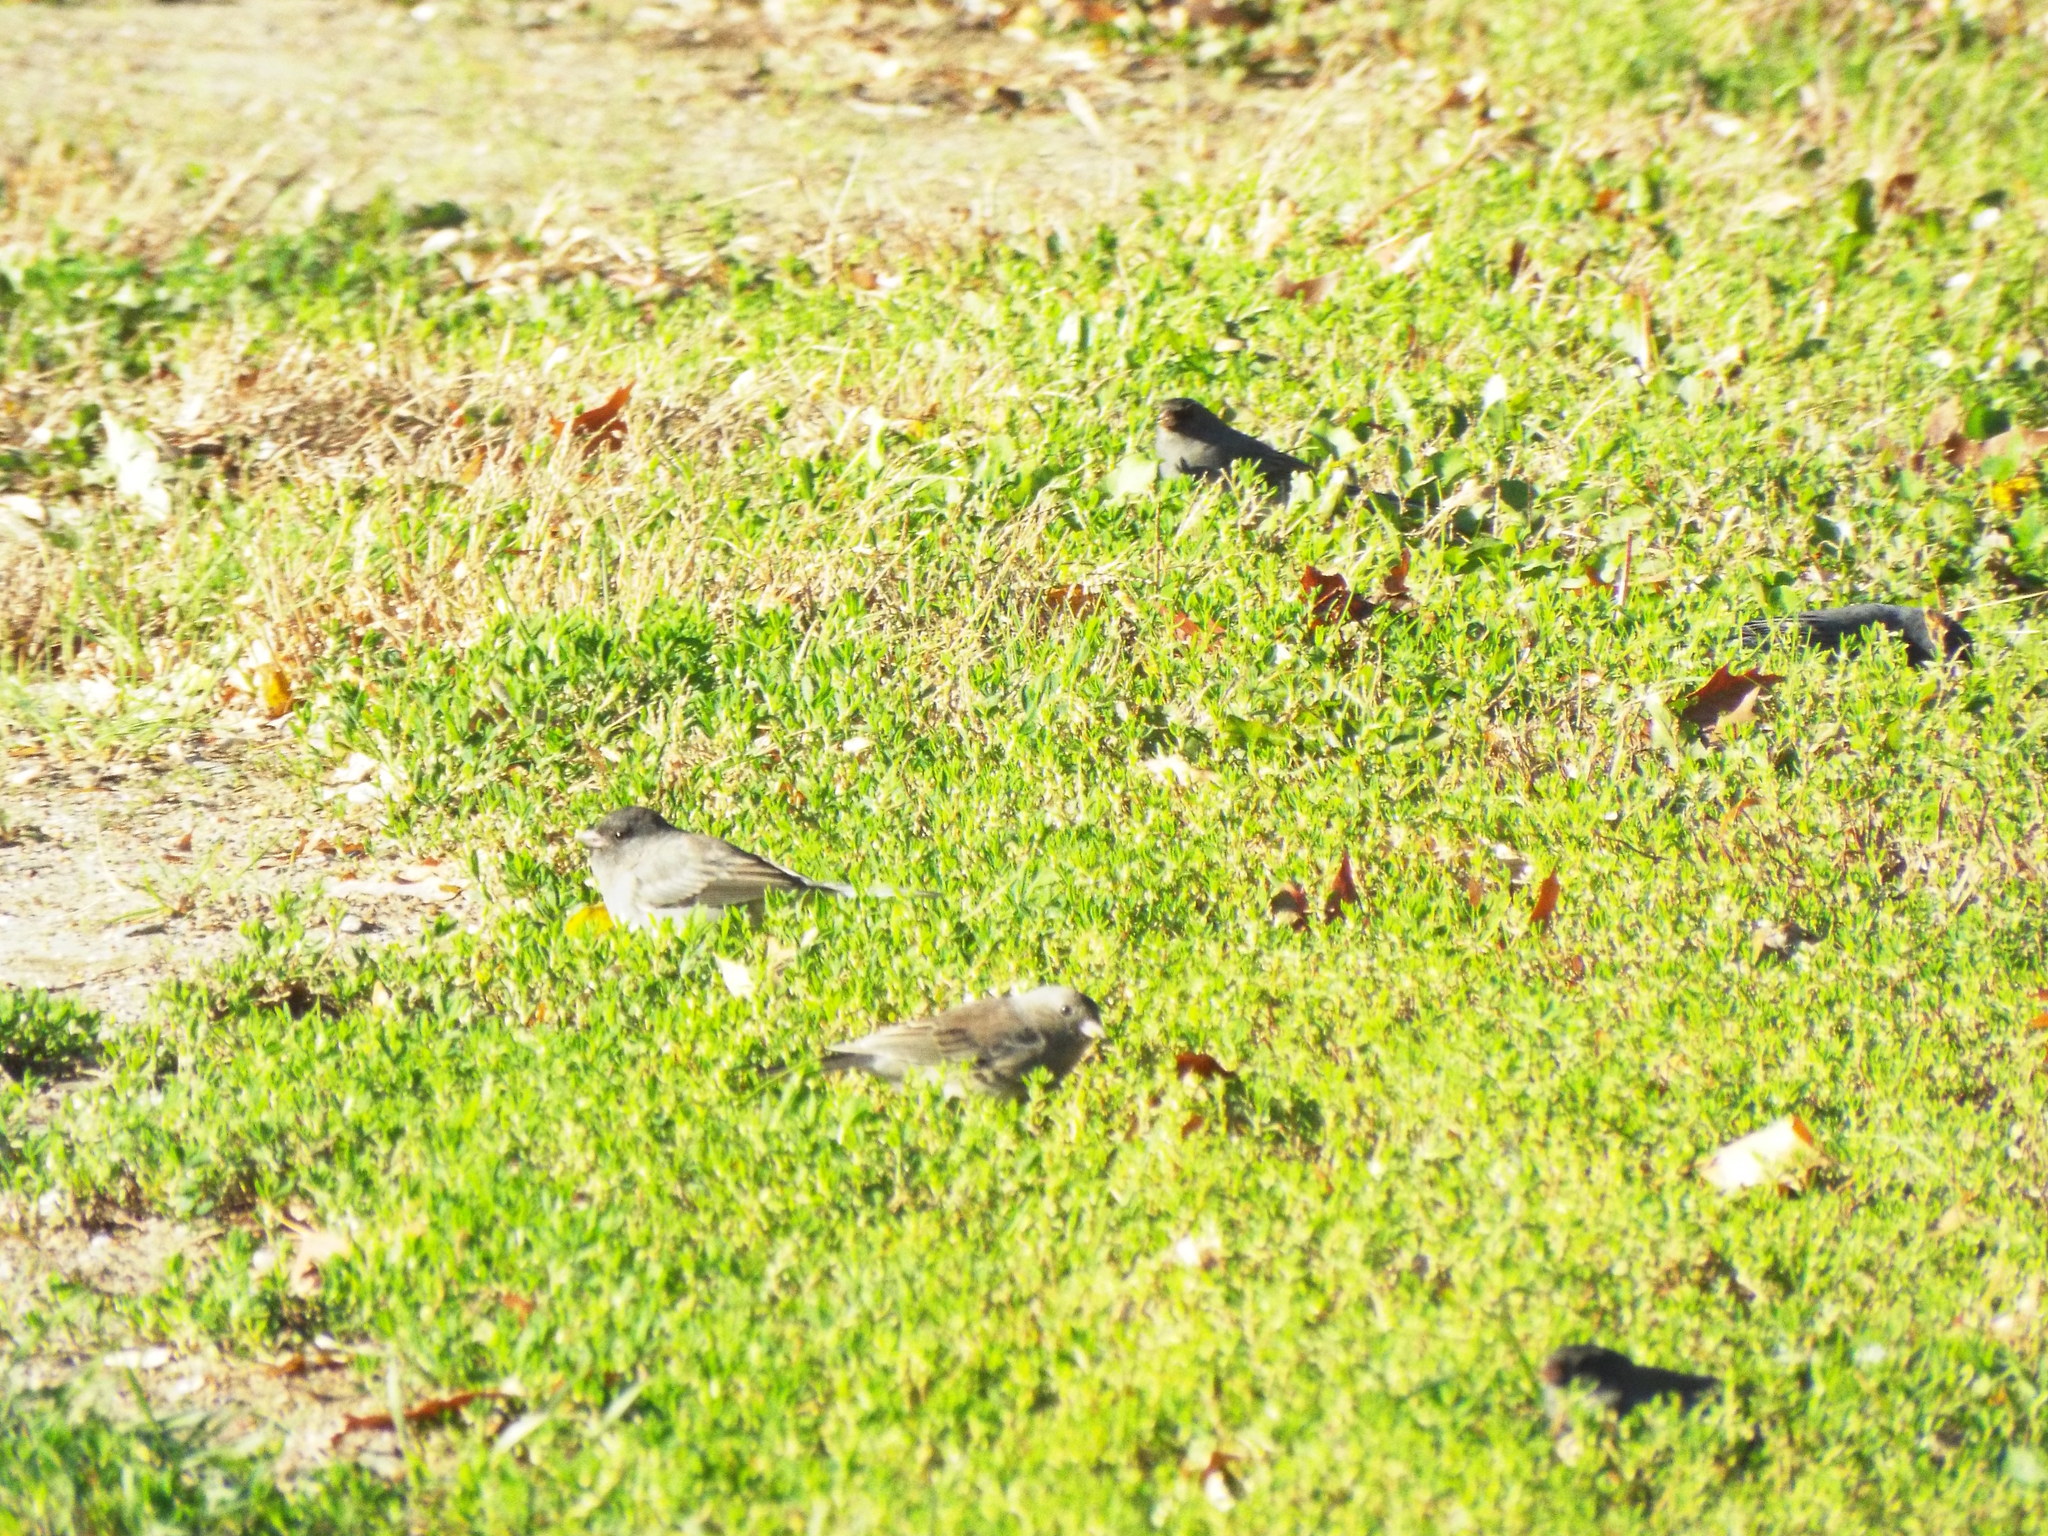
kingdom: Animalia
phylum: Chordata
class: Aves
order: Passeriformes
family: Passerellidae
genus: Junco
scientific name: Junco hyemalis
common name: Dark-eyed junco
